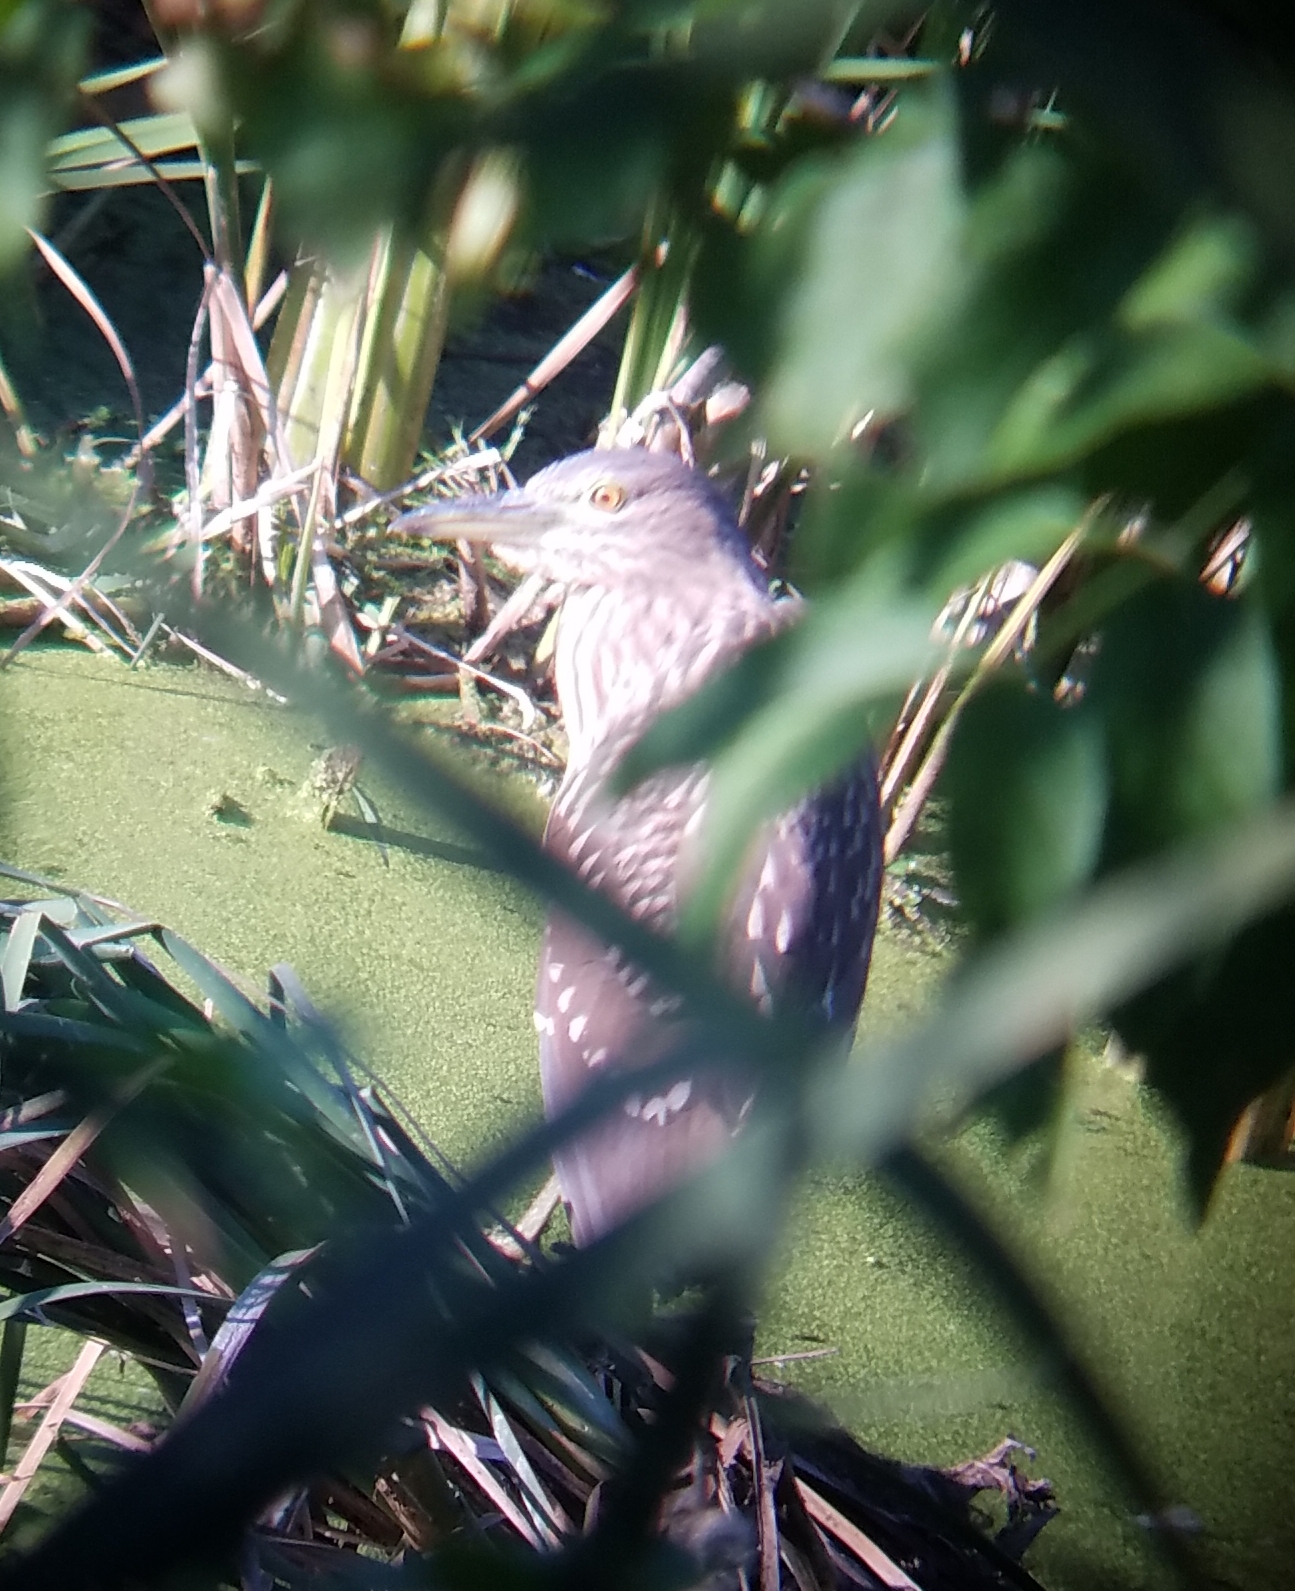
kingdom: Animalia
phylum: Chordata
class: Aves
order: Pelecaniformes
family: Ardeidae
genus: Nycticorax
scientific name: Nycticorax nycticorax
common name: Black-crowned night heron
